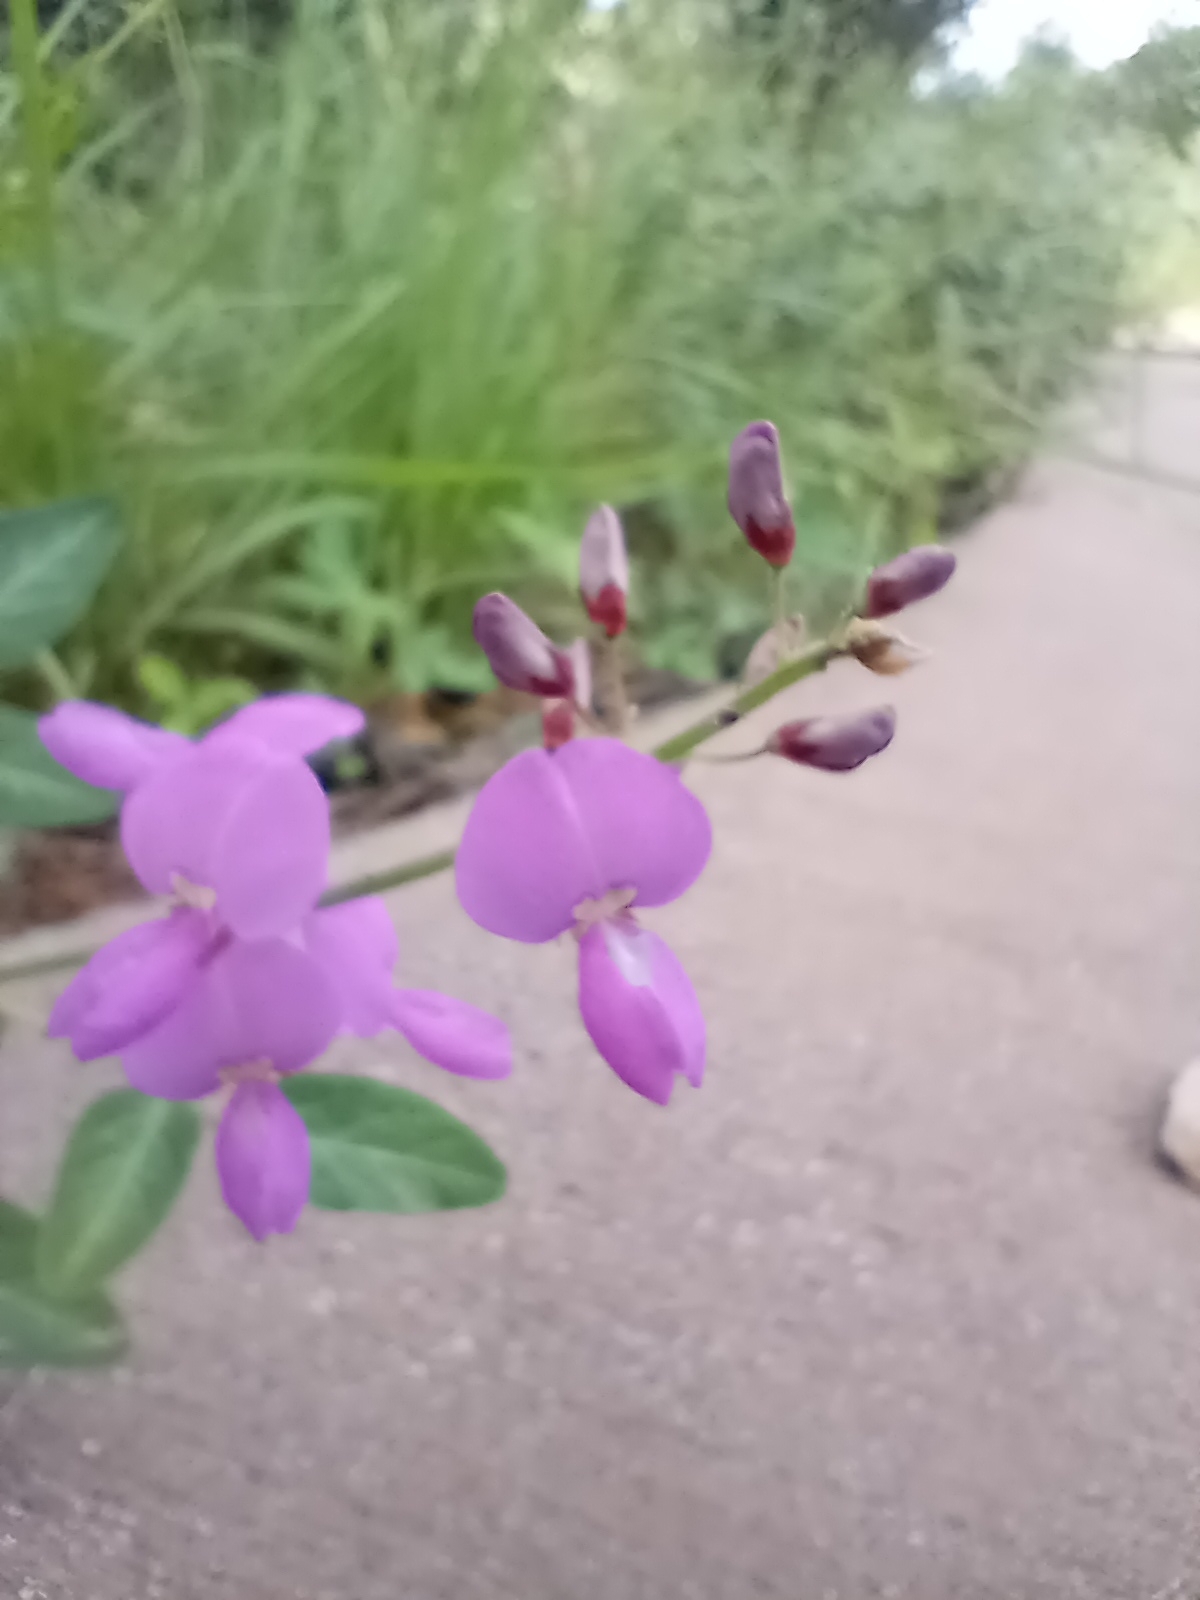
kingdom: Plantae
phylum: Tracheophyta
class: Magnoliopsida
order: Fabales
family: Fabaceae
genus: Desmodium
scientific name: Desmodium batocaulon
